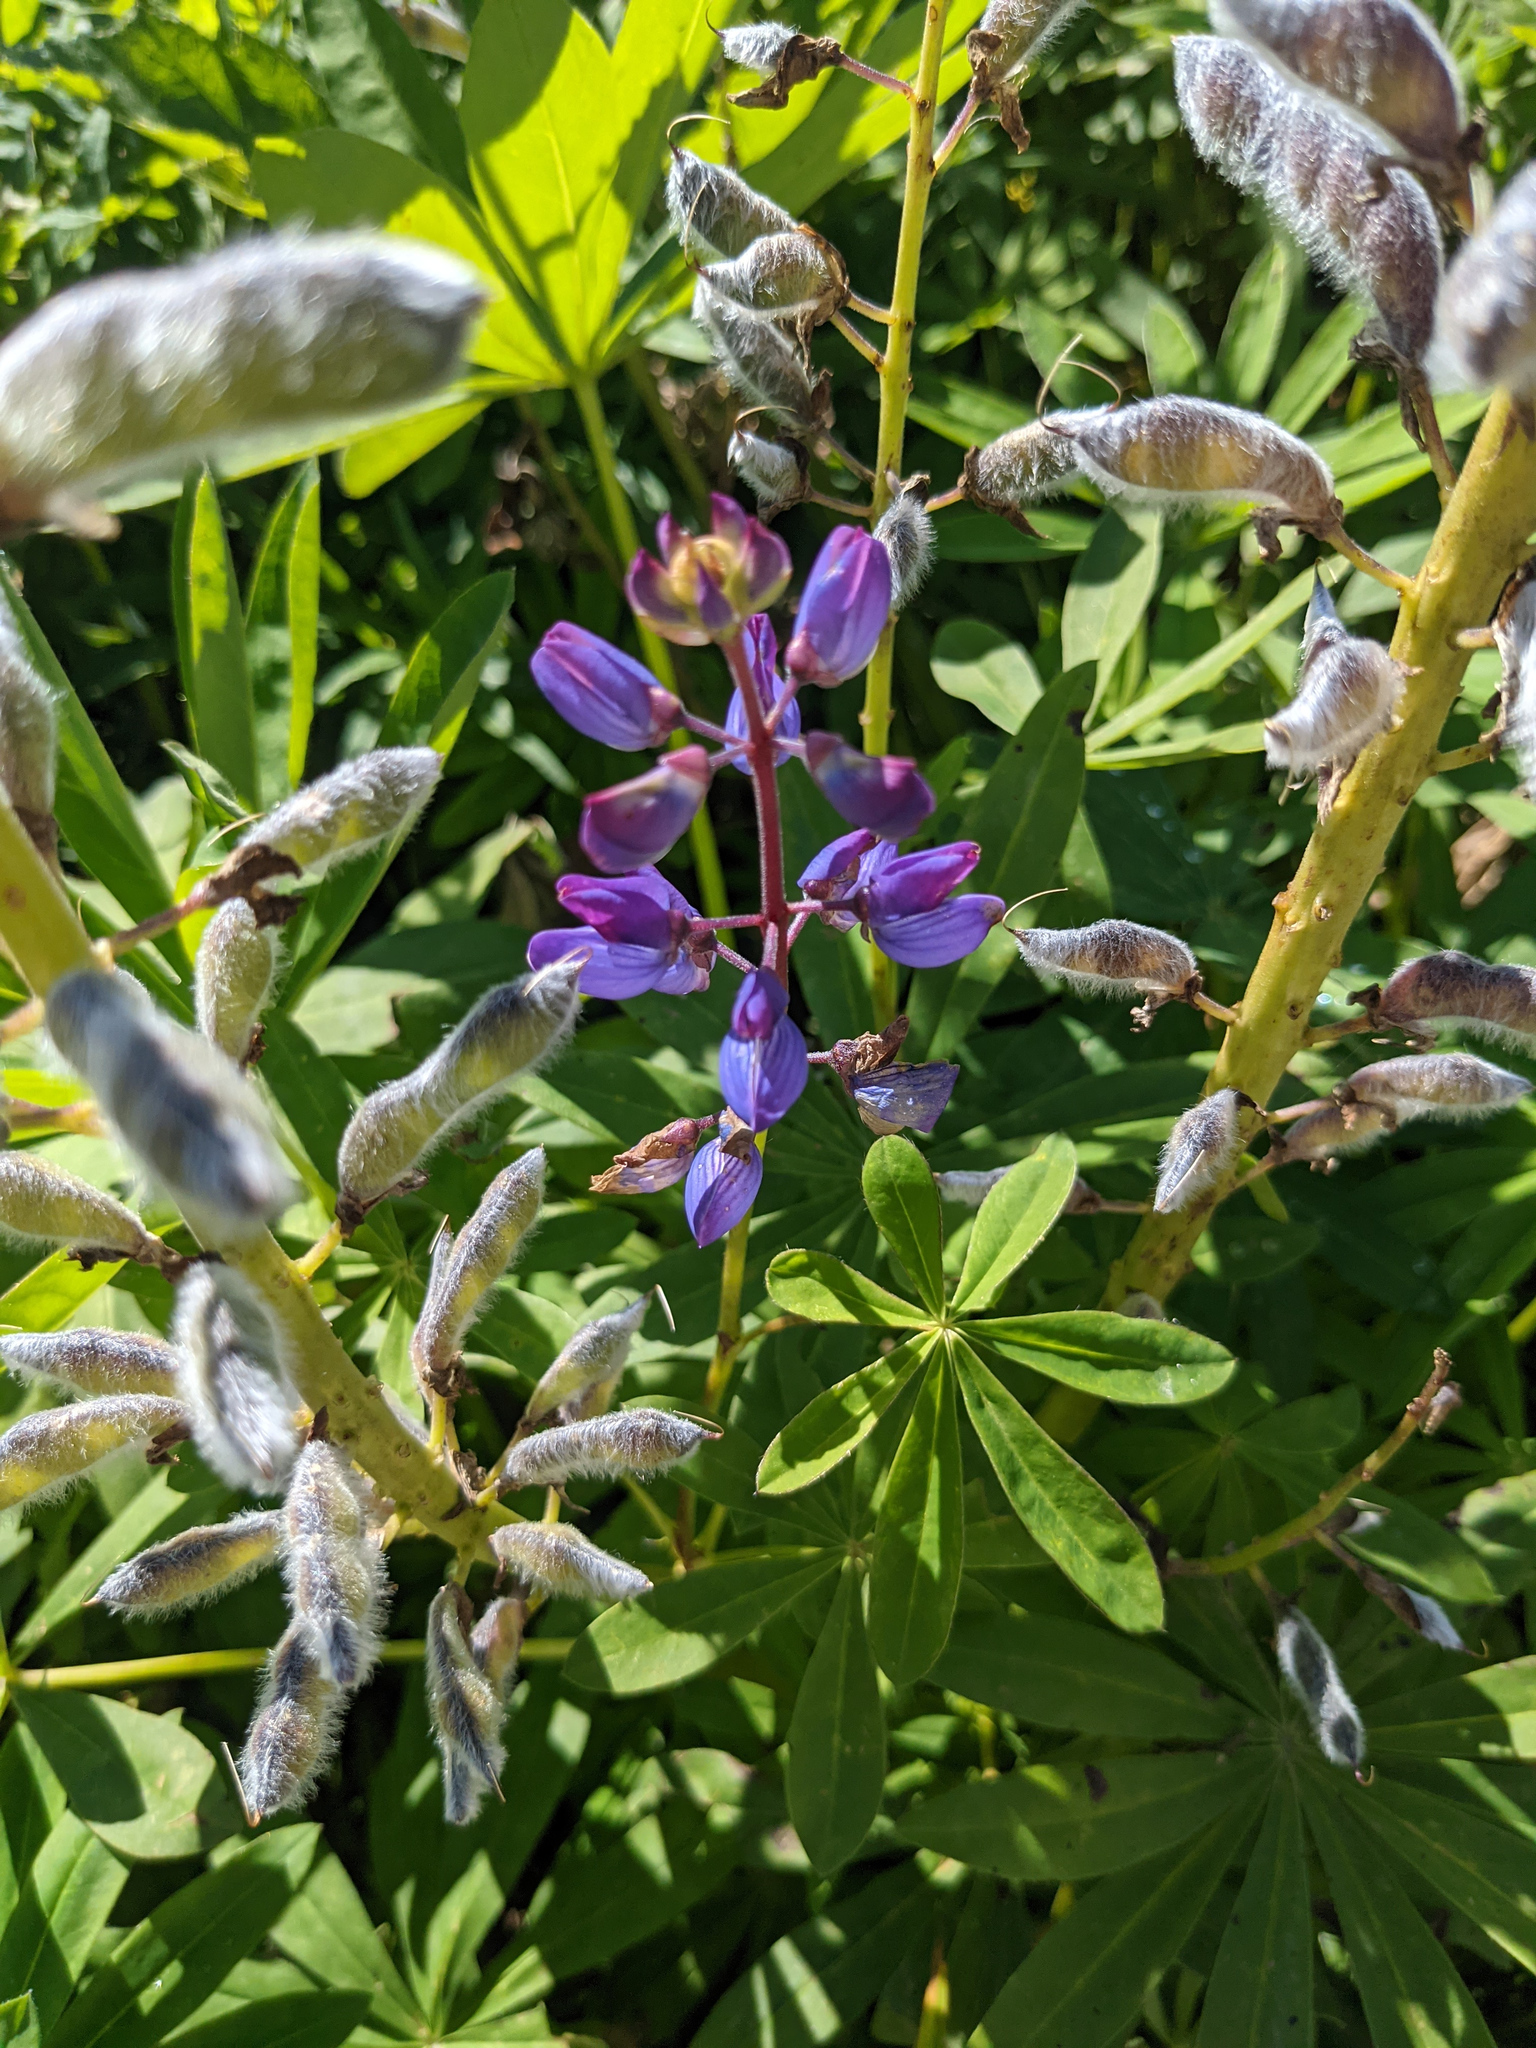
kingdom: Plantae
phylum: Tracheophyta
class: Magnoliopsida
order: Fabales
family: Fabaceae
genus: Lupinus
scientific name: Lupinus polyphyllus
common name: Garden lupin
